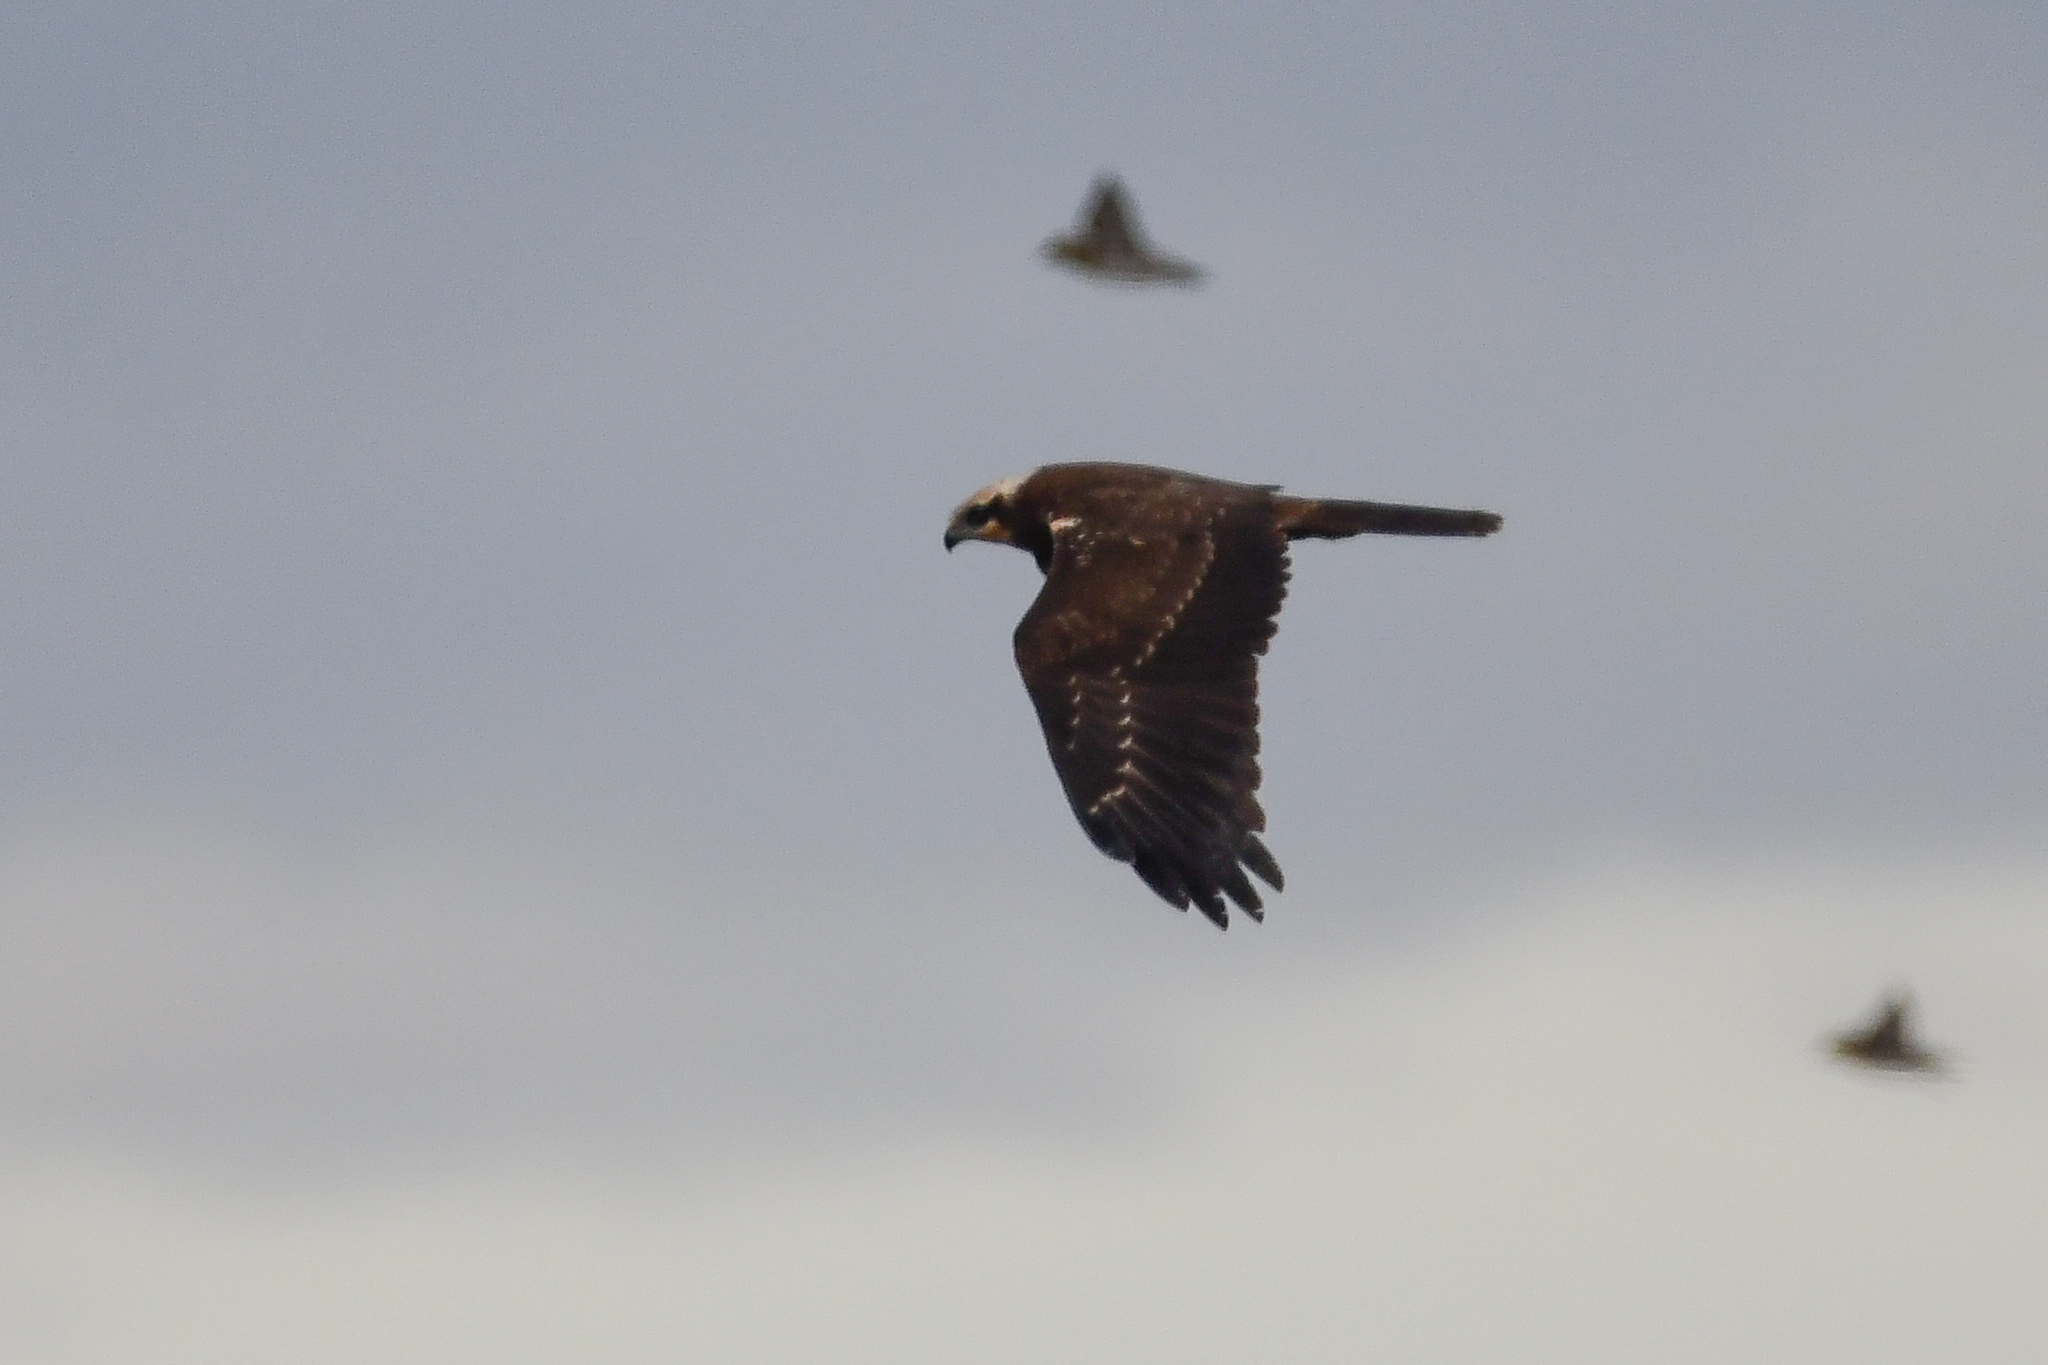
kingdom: Animalia
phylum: Chordata
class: Aves
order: Accipitriformes
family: Accipitridae
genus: Circus
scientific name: Circus aeruginosus
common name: Western marsh harrier
